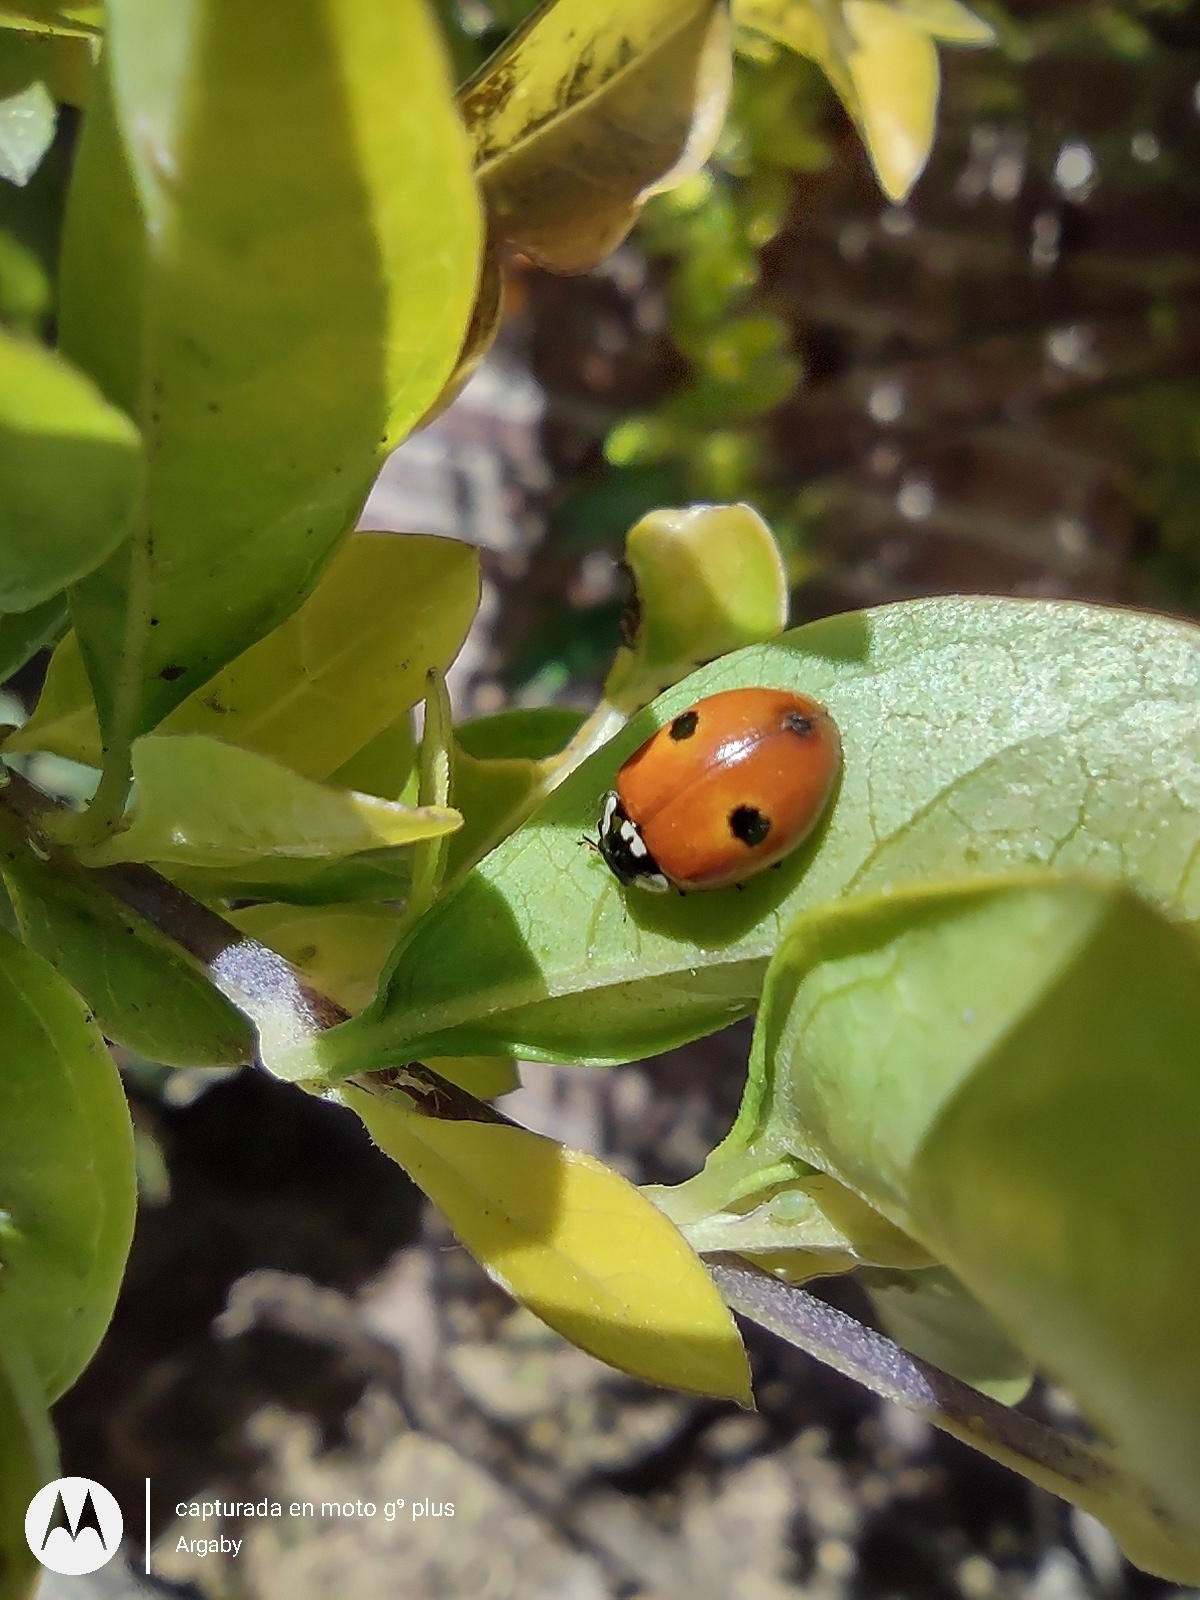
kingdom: Animalia
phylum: Arthropoda
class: Insecta
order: Coleoptera
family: Coccinellidae
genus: Adalia
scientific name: Adalia bipunctata
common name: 2-spot ladybird
